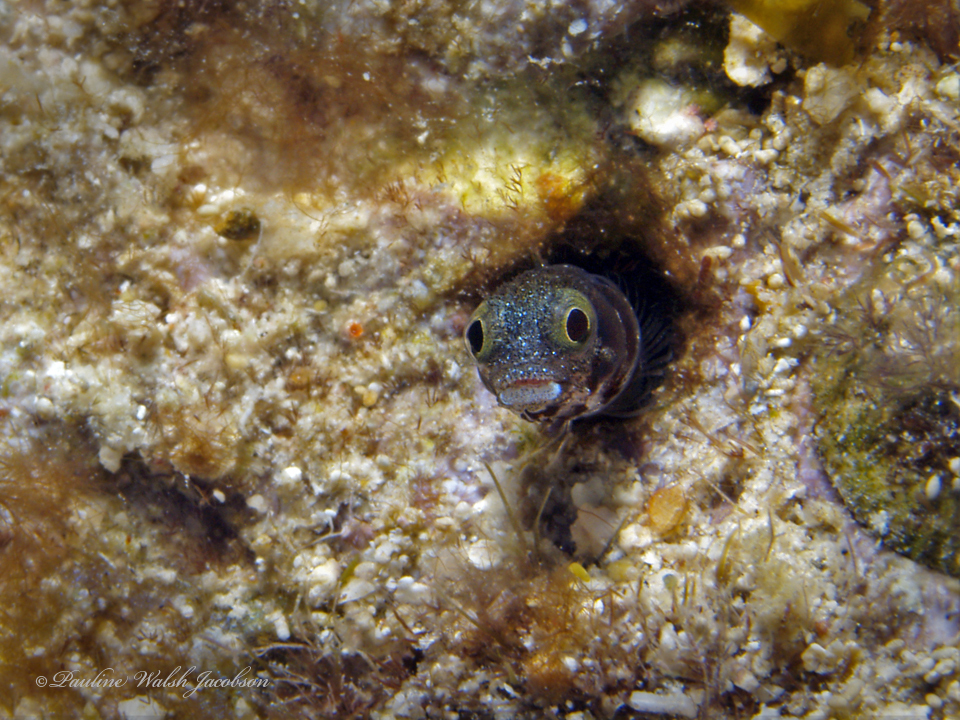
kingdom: Animalia
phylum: Chordata
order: Perciformes
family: Chaenopsidae
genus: Acanthemblemaria
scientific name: Acanthemblemaria spinosa
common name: Spinyhead blenny
